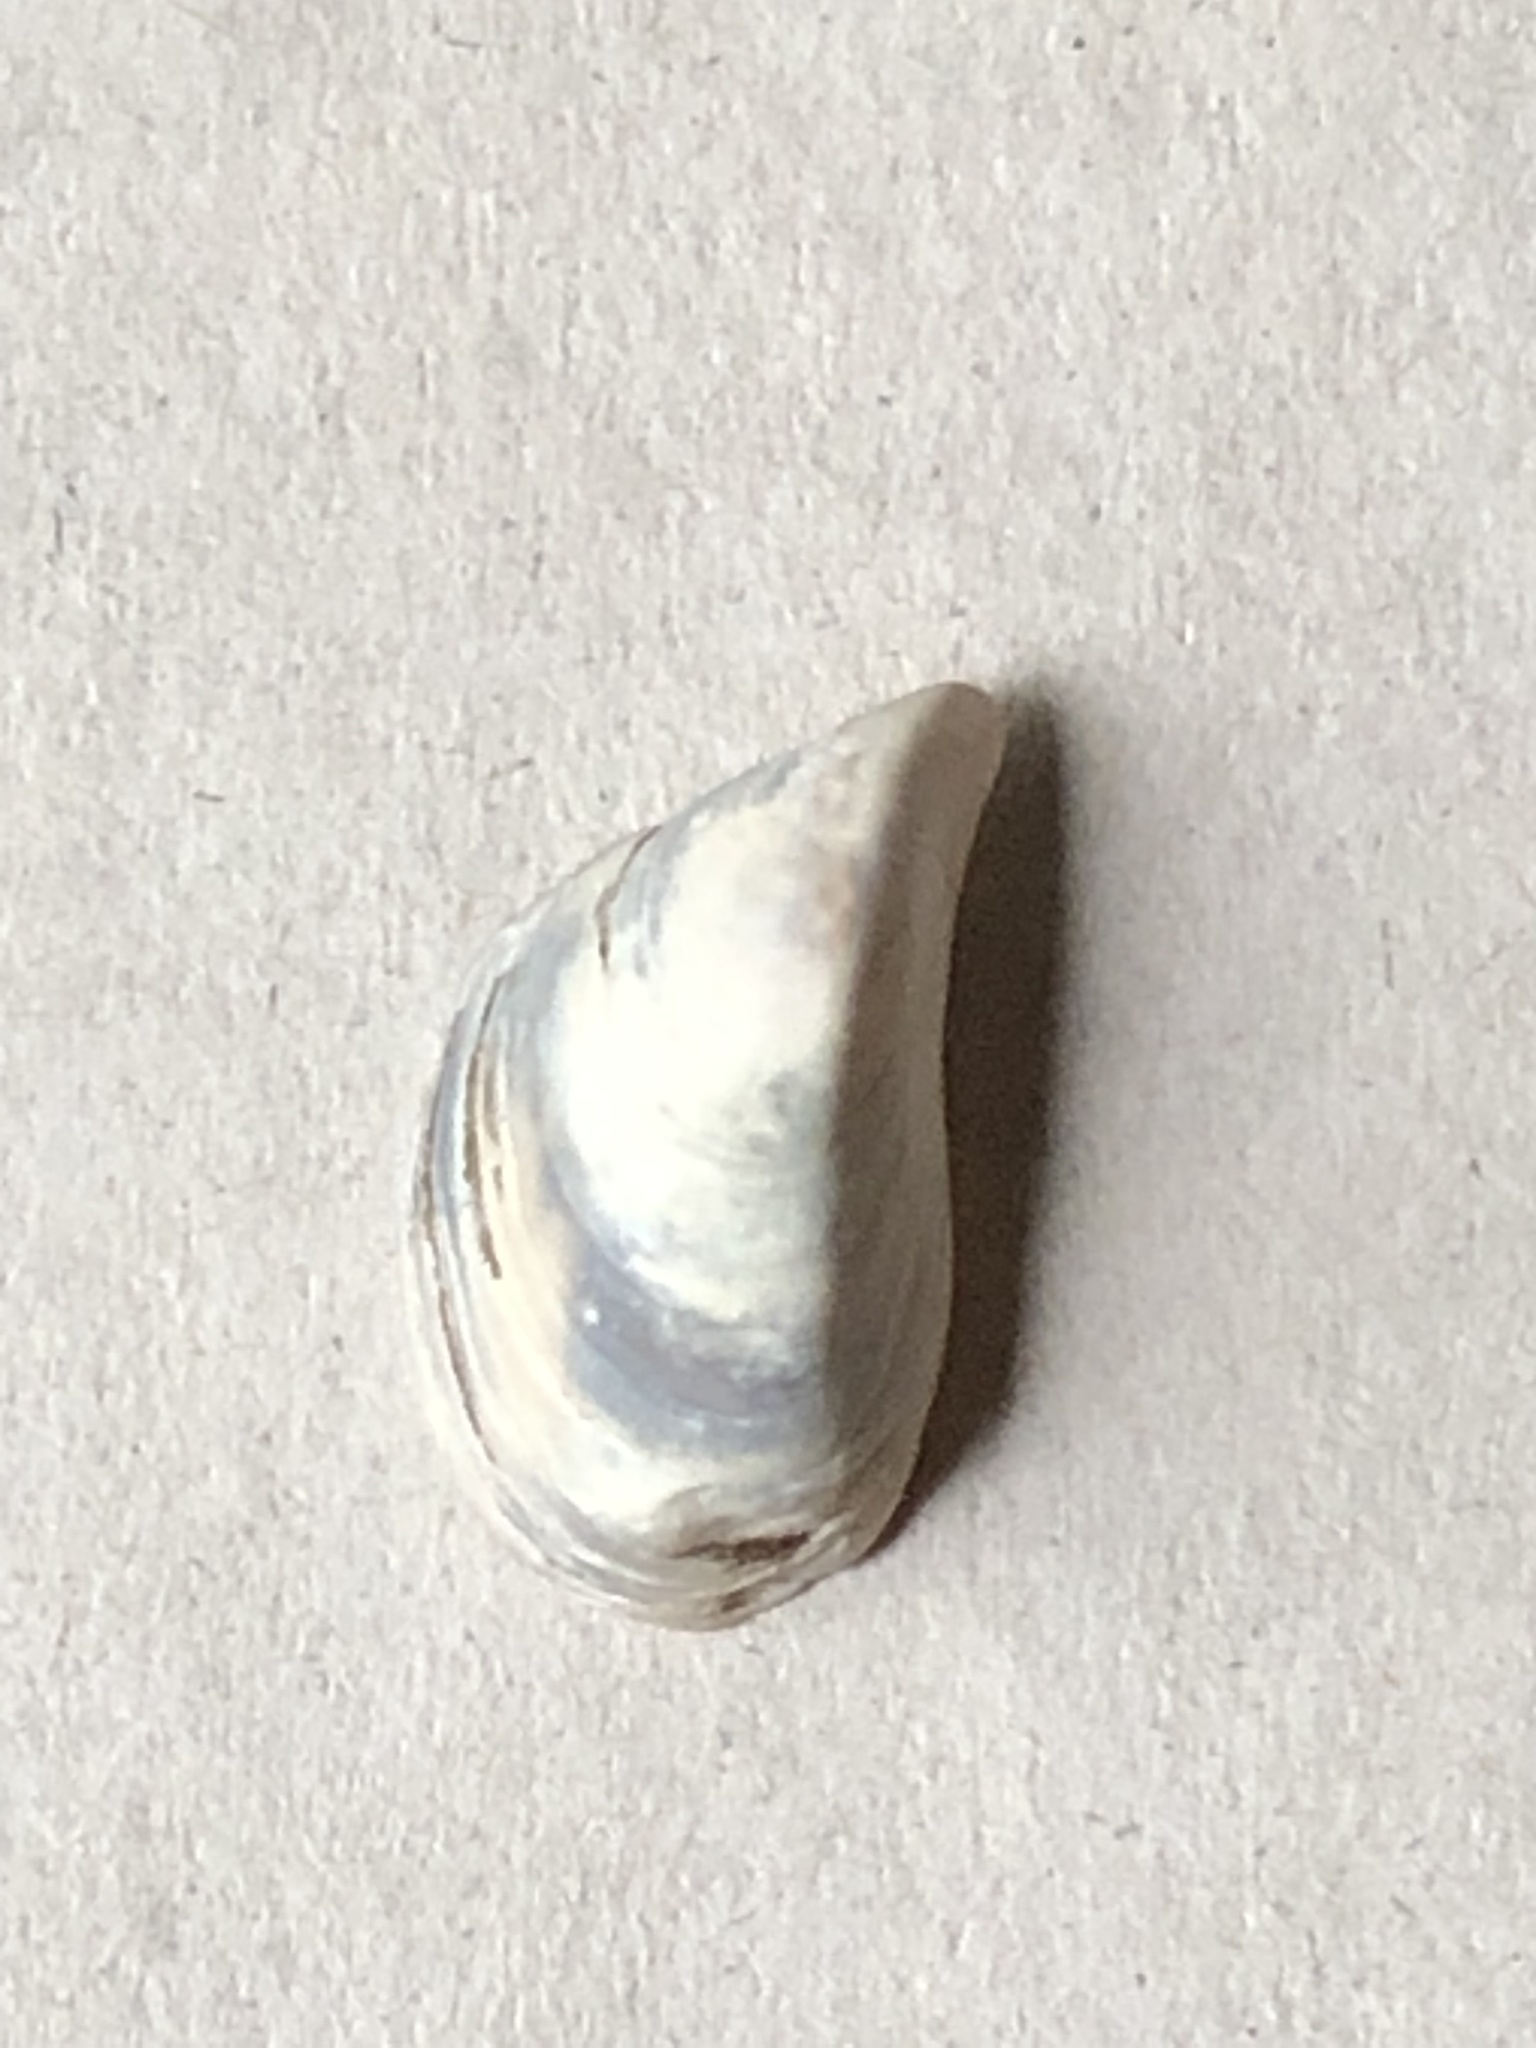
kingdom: Animalia
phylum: Mollusca
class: Bivalvia
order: Myida
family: Dreissenidae
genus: Dreissena
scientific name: Dreissena polymorpha
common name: Zebra mussel
